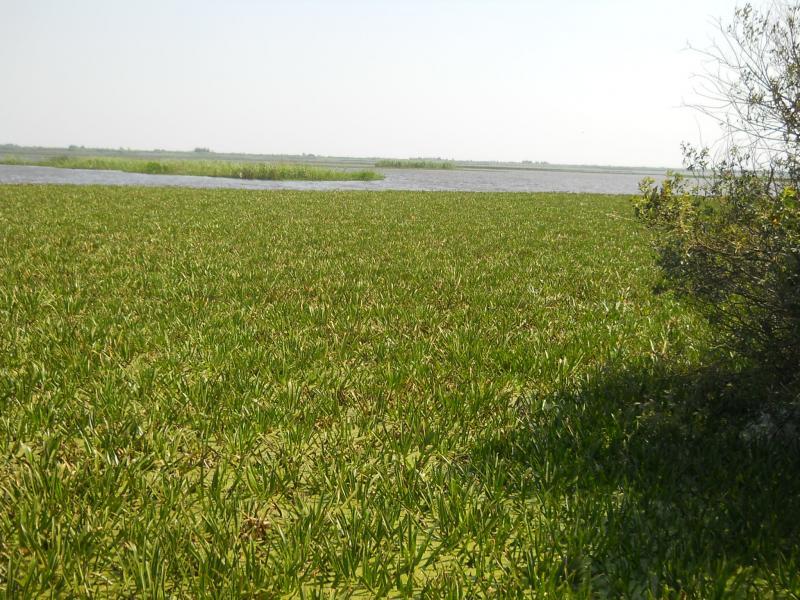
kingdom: Plantae
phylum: Tracheophyta
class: Liliopsida
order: Alismatales
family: Hydrocharitaceae
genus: Stratiotes
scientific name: Stratiotes aloides
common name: Water-soldier
